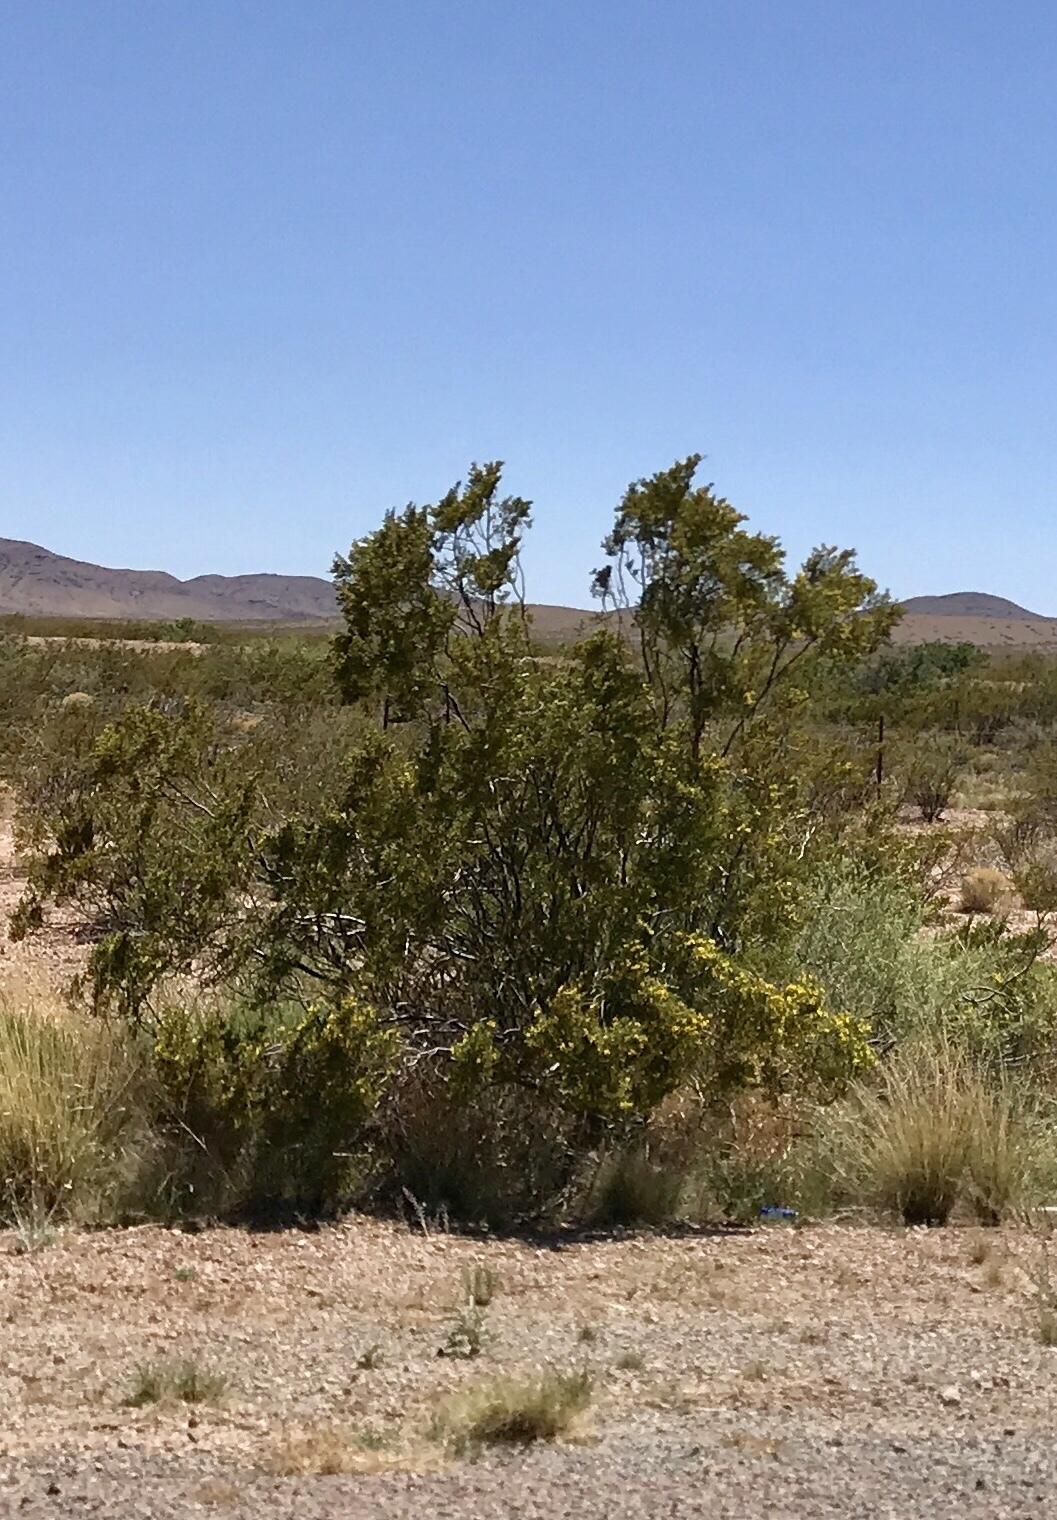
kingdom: Plantae
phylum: Tracheophyta
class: Magnoliopsida
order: Zygophyllales
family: Zygophyllaceae
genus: Larrea
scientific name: Larrea tridentata
